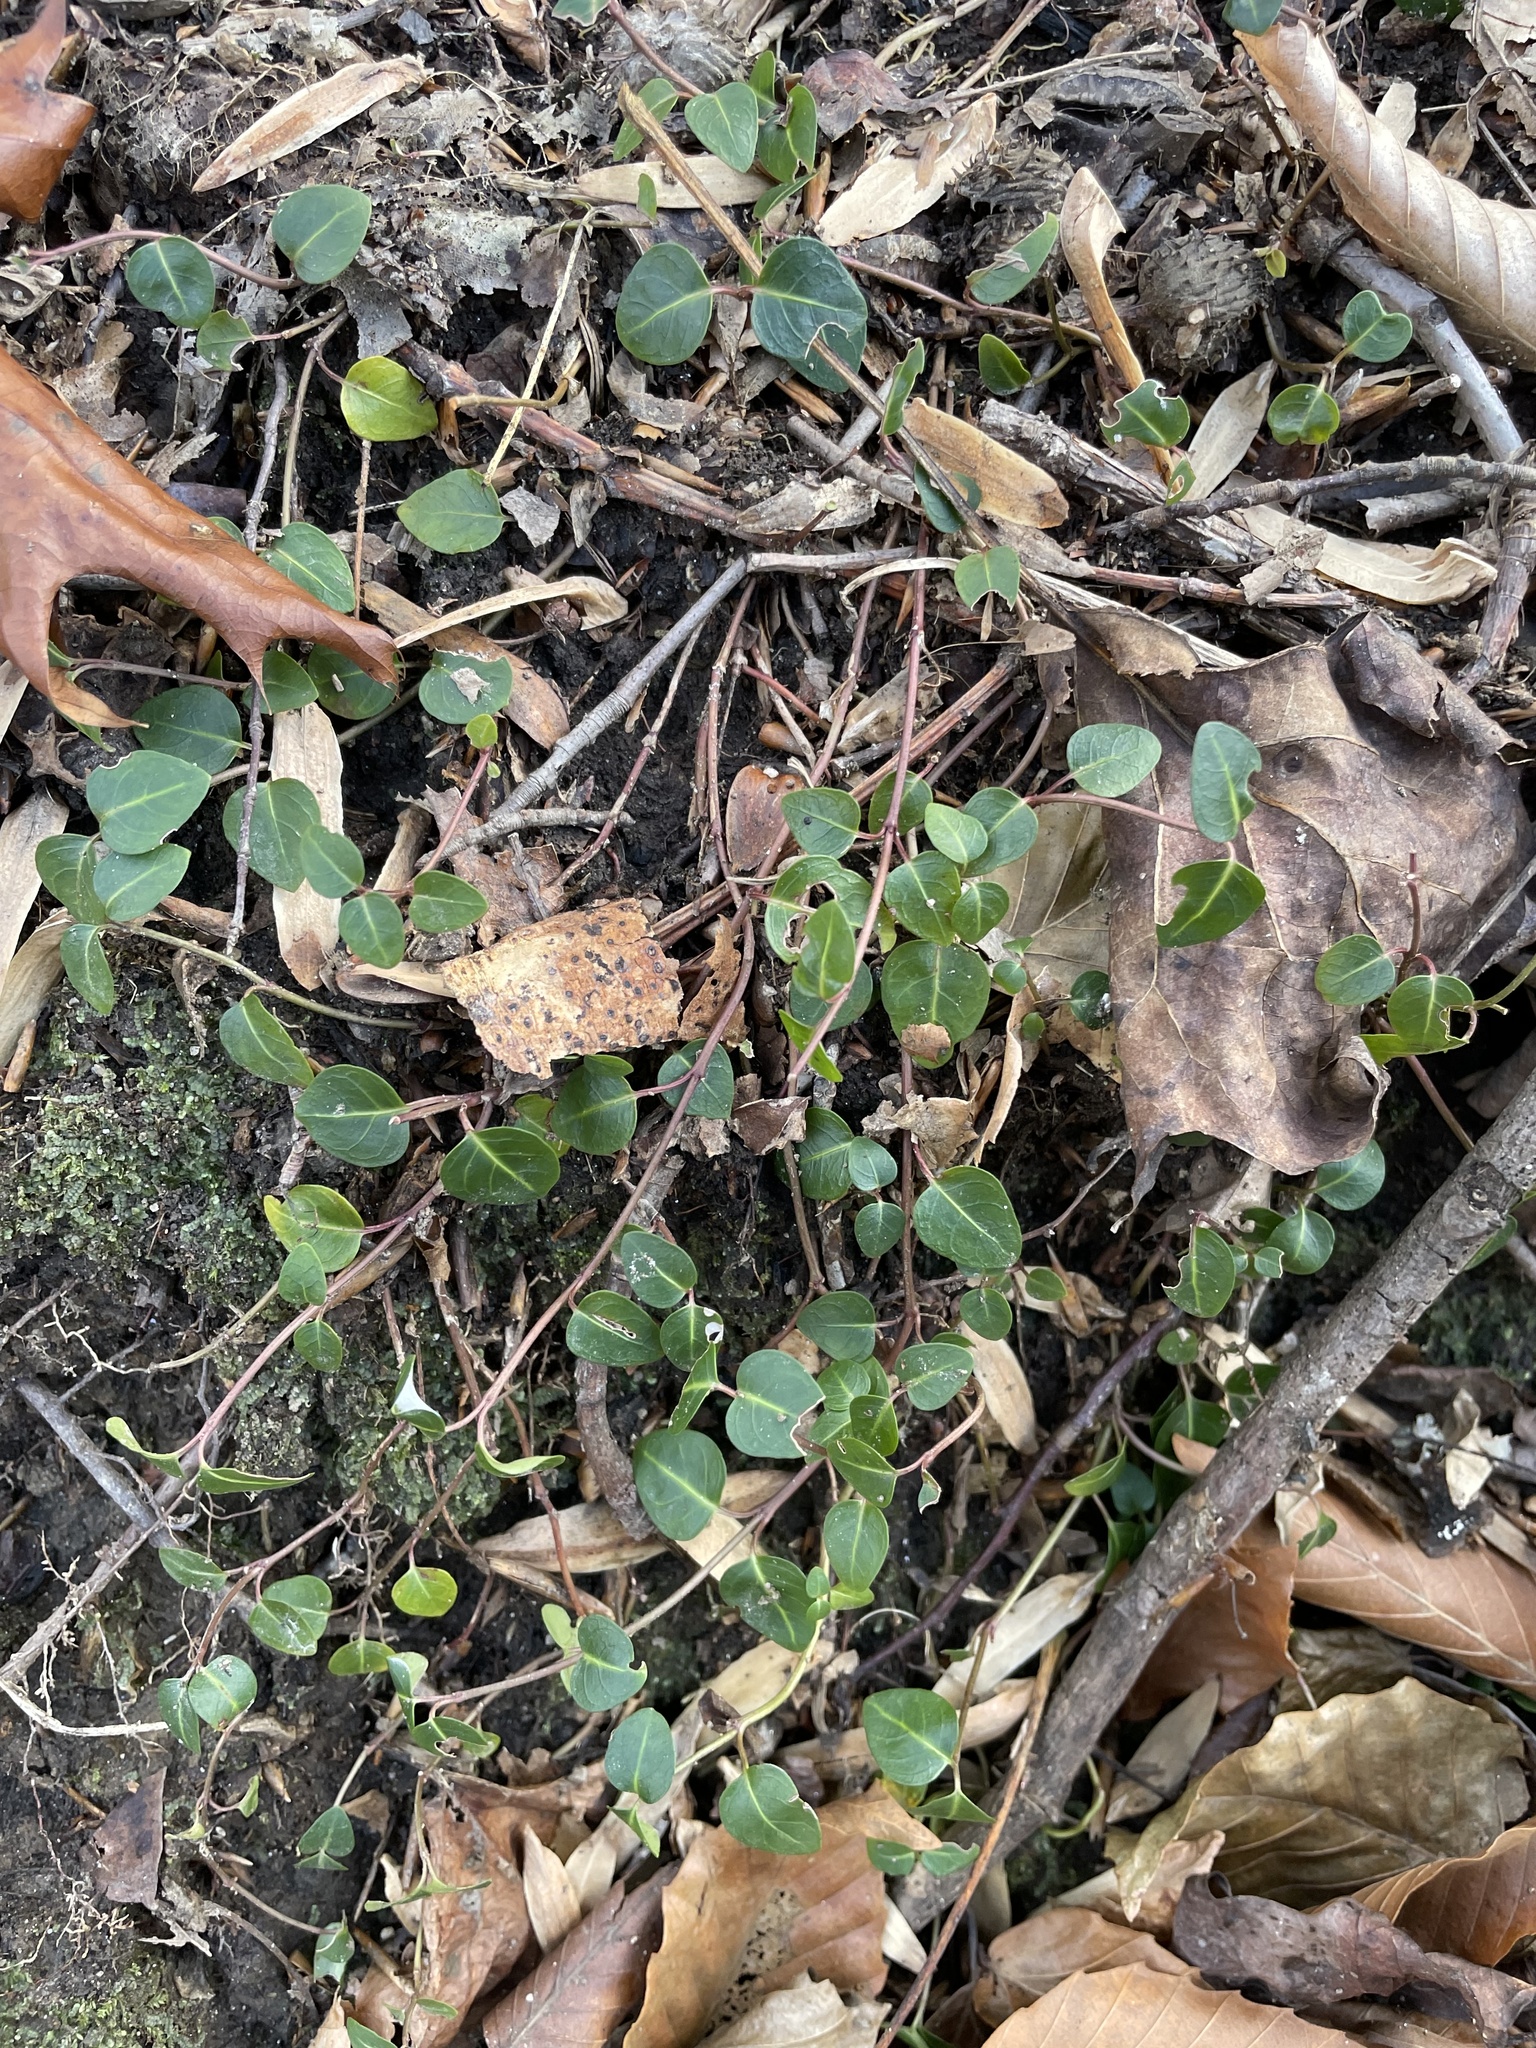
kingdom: Plantae
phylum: Tracheophyta
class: Magnoliopsida
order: Gentianales
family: Rubiaceae
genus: Mitchella
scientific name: Mitchella repens
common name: Partridge-berry
